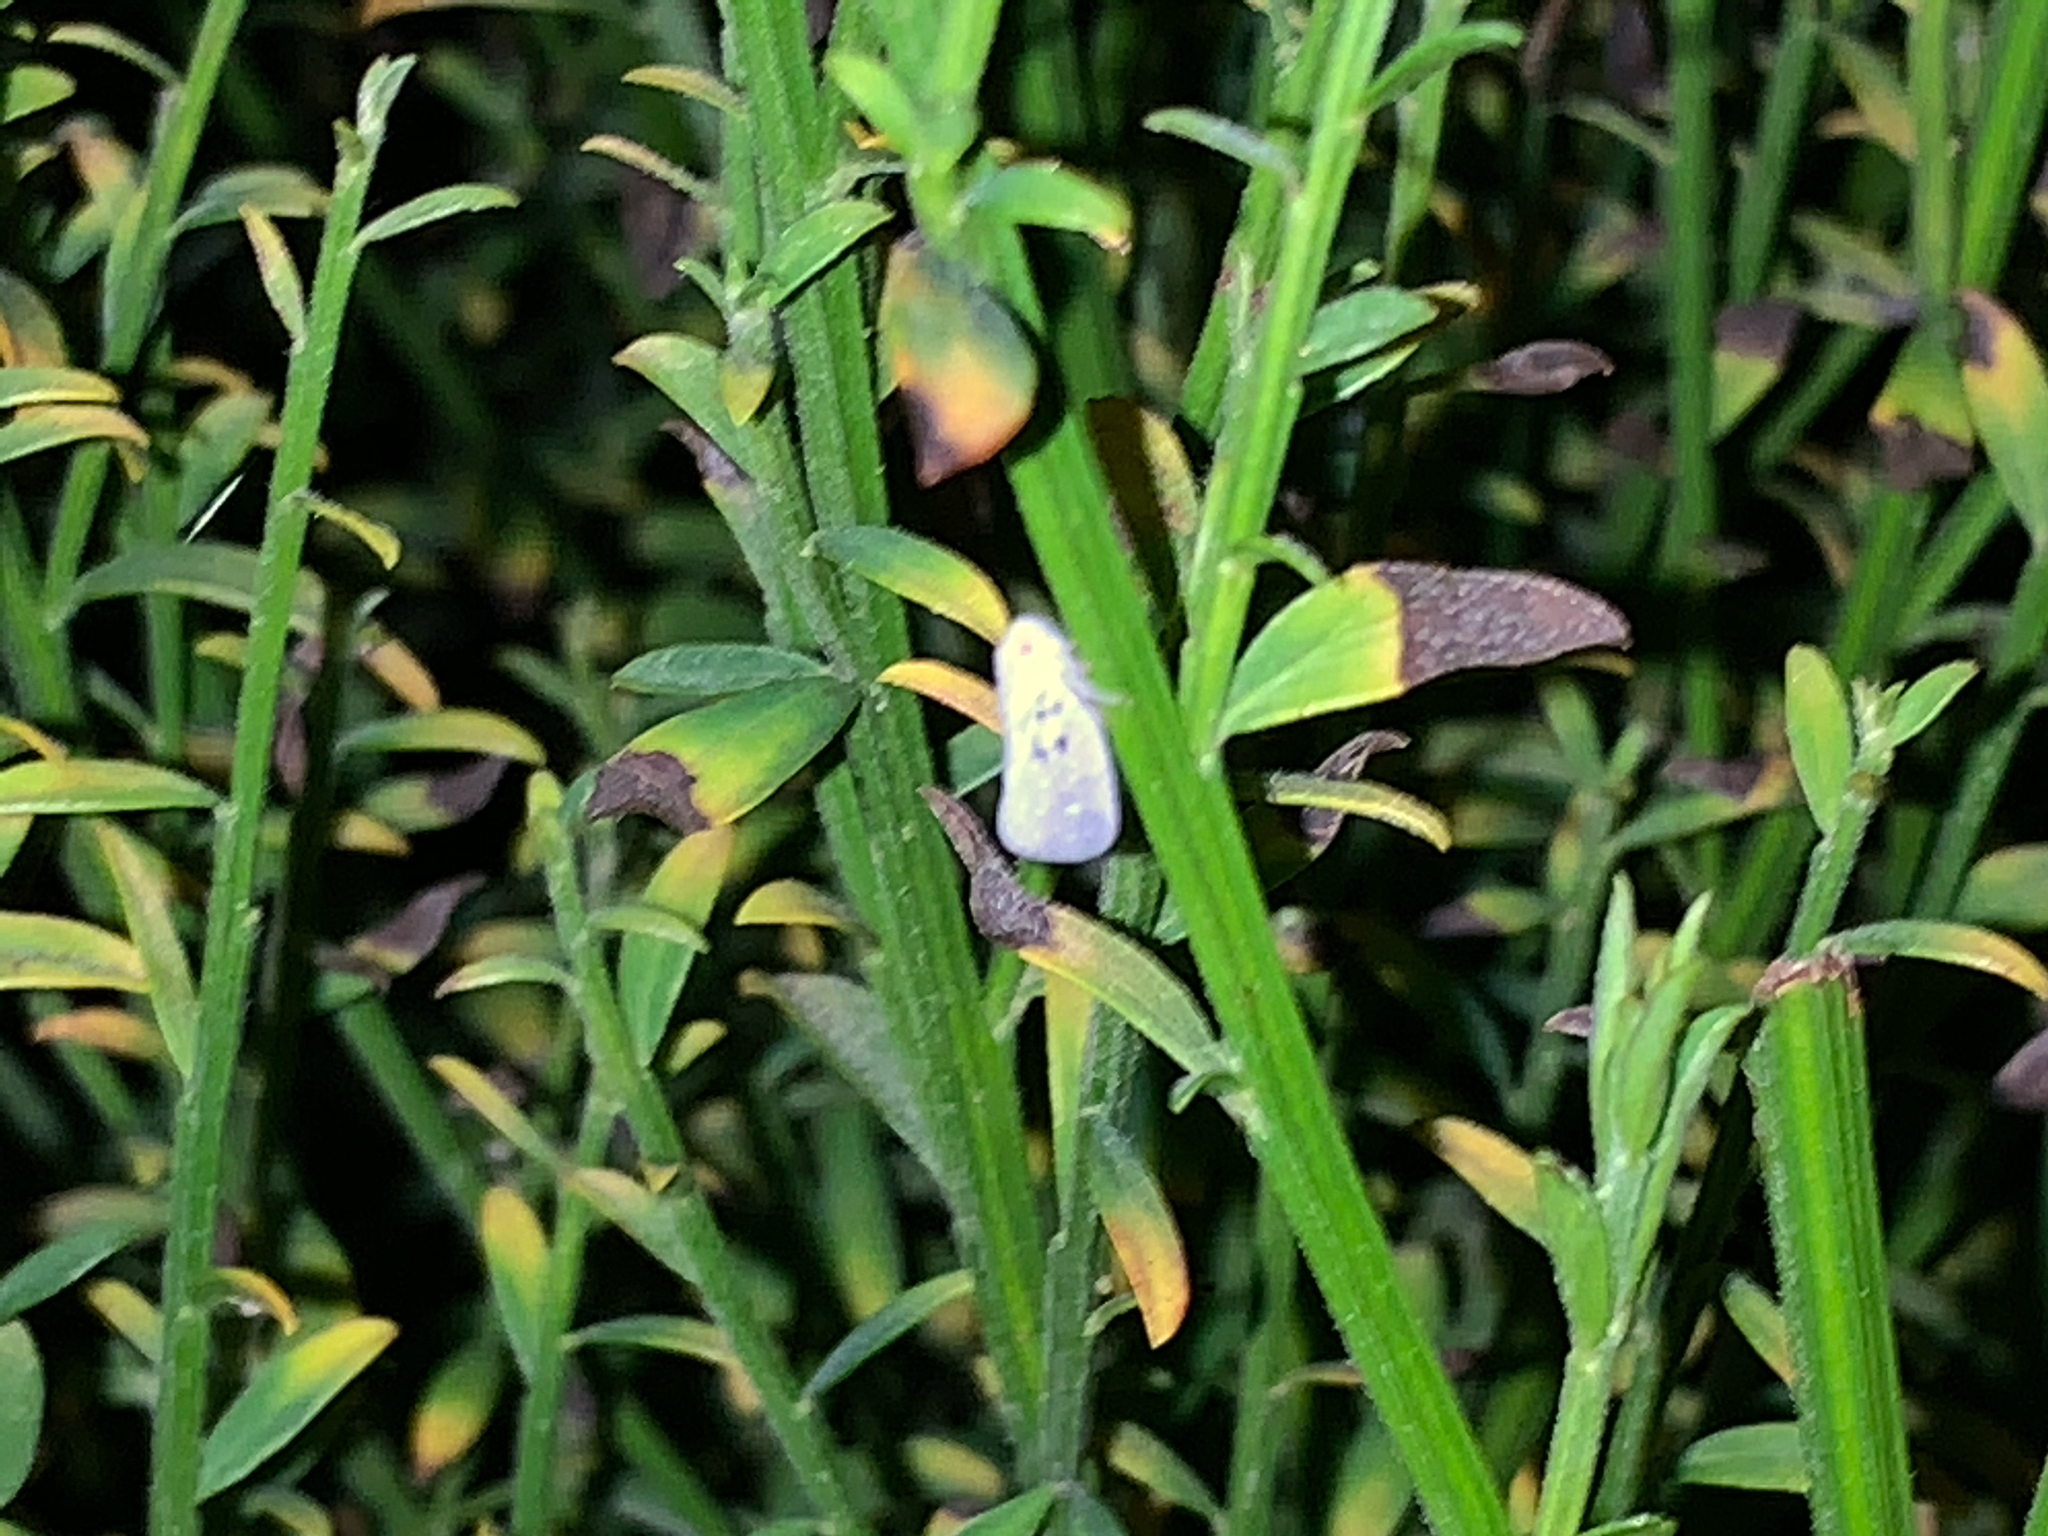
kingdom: Animalia
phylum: Arthropoda
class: Insecta
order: Hemiptera
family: Flatidae
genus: Metcalfa
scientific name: Metcalfa pruinosa
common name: Citrus flatid planthopper
